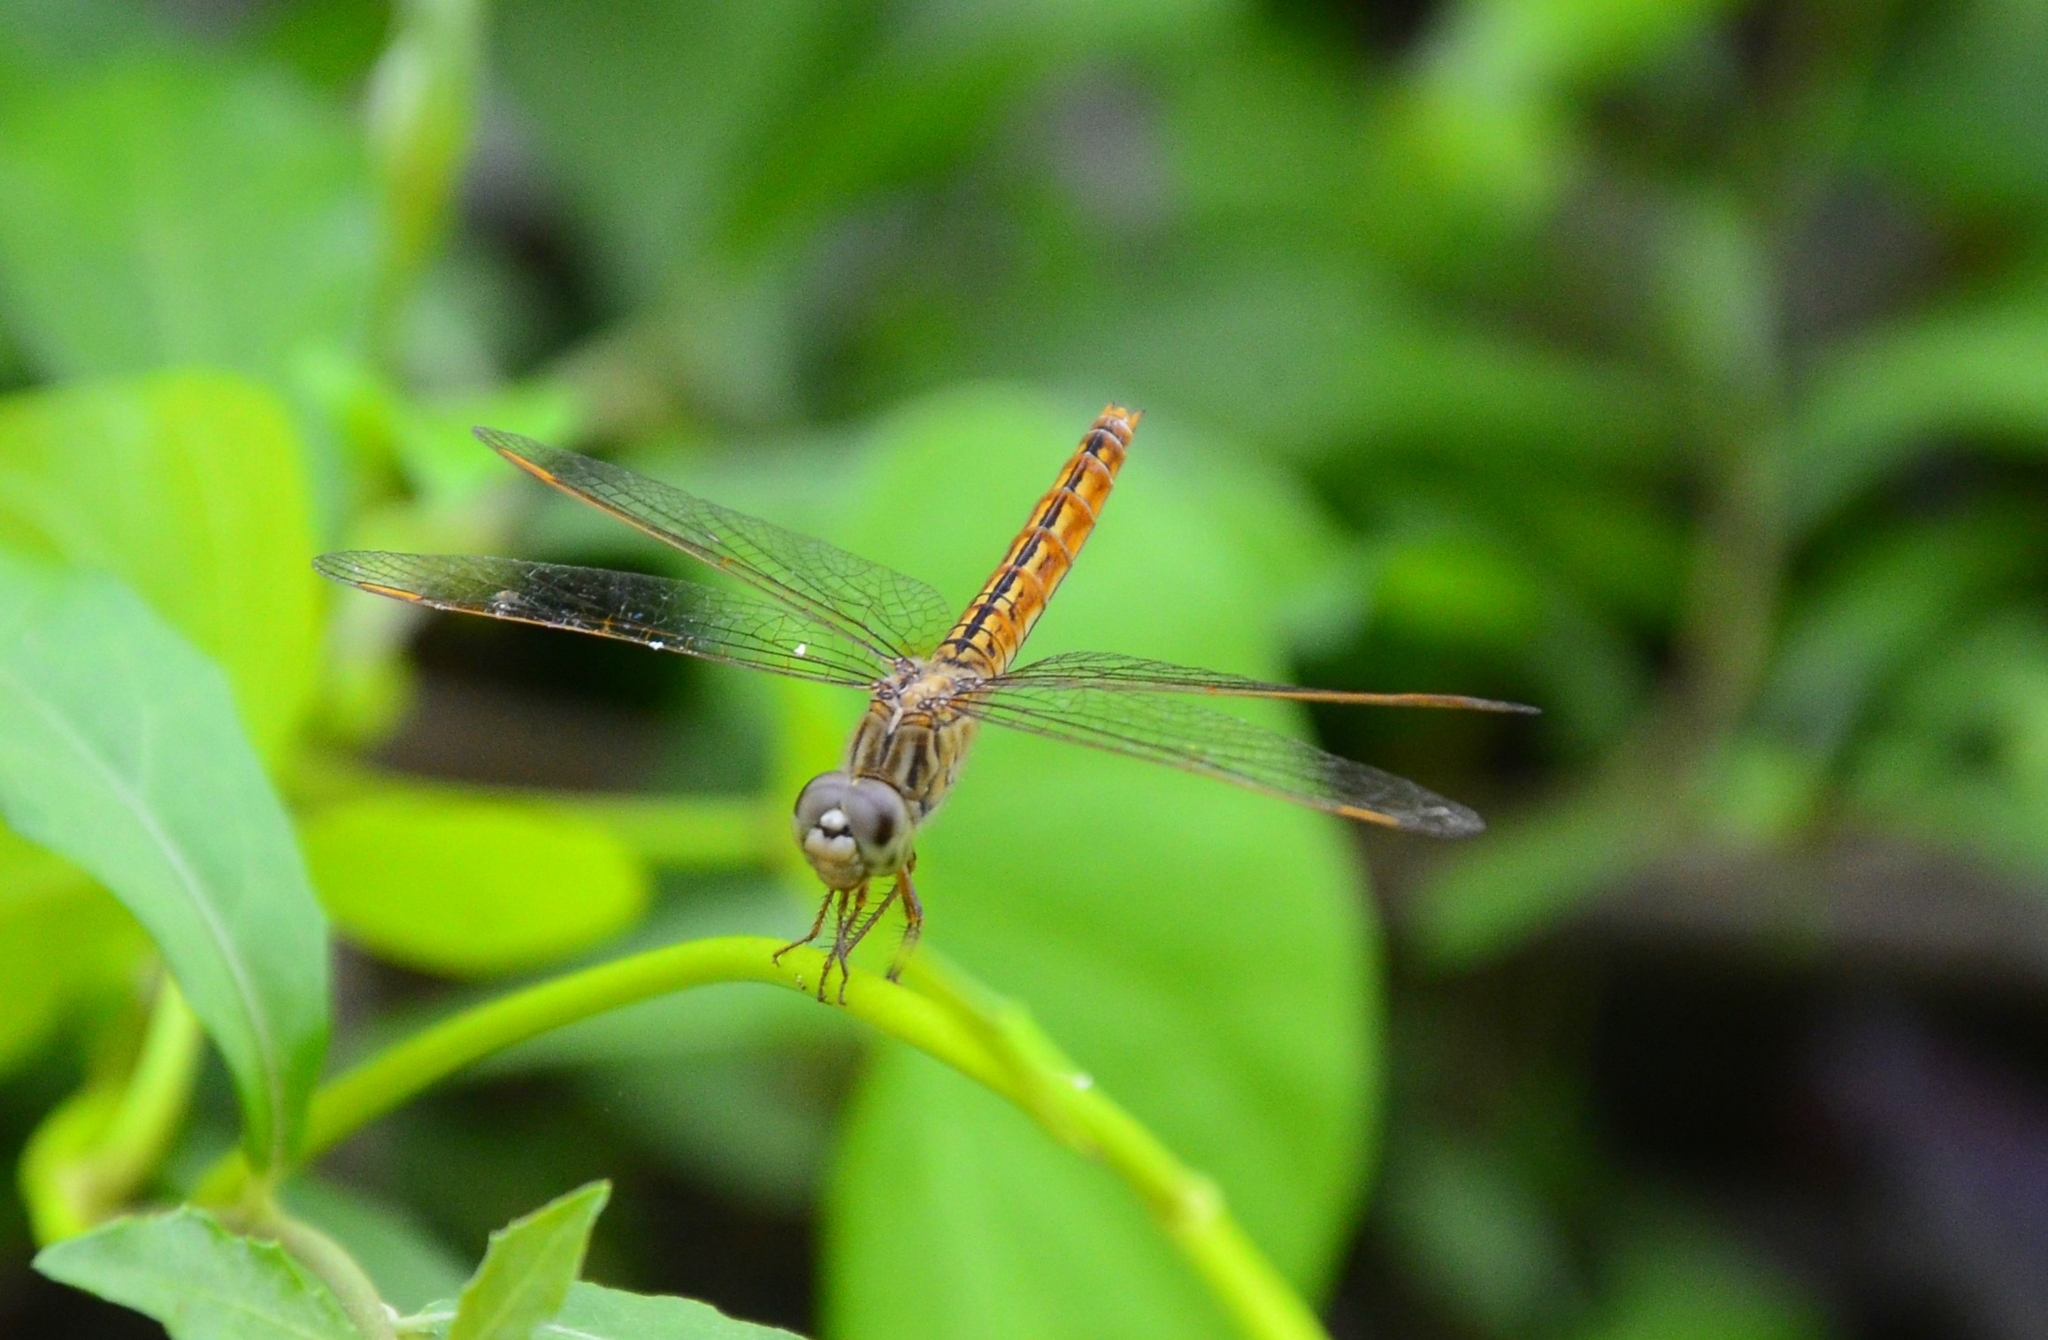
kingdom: Animalia
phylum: Arthropoda
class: Insecta
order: Odonata
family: Libellulidae
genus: Brachythemis
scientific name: Brachythemis contaminata
